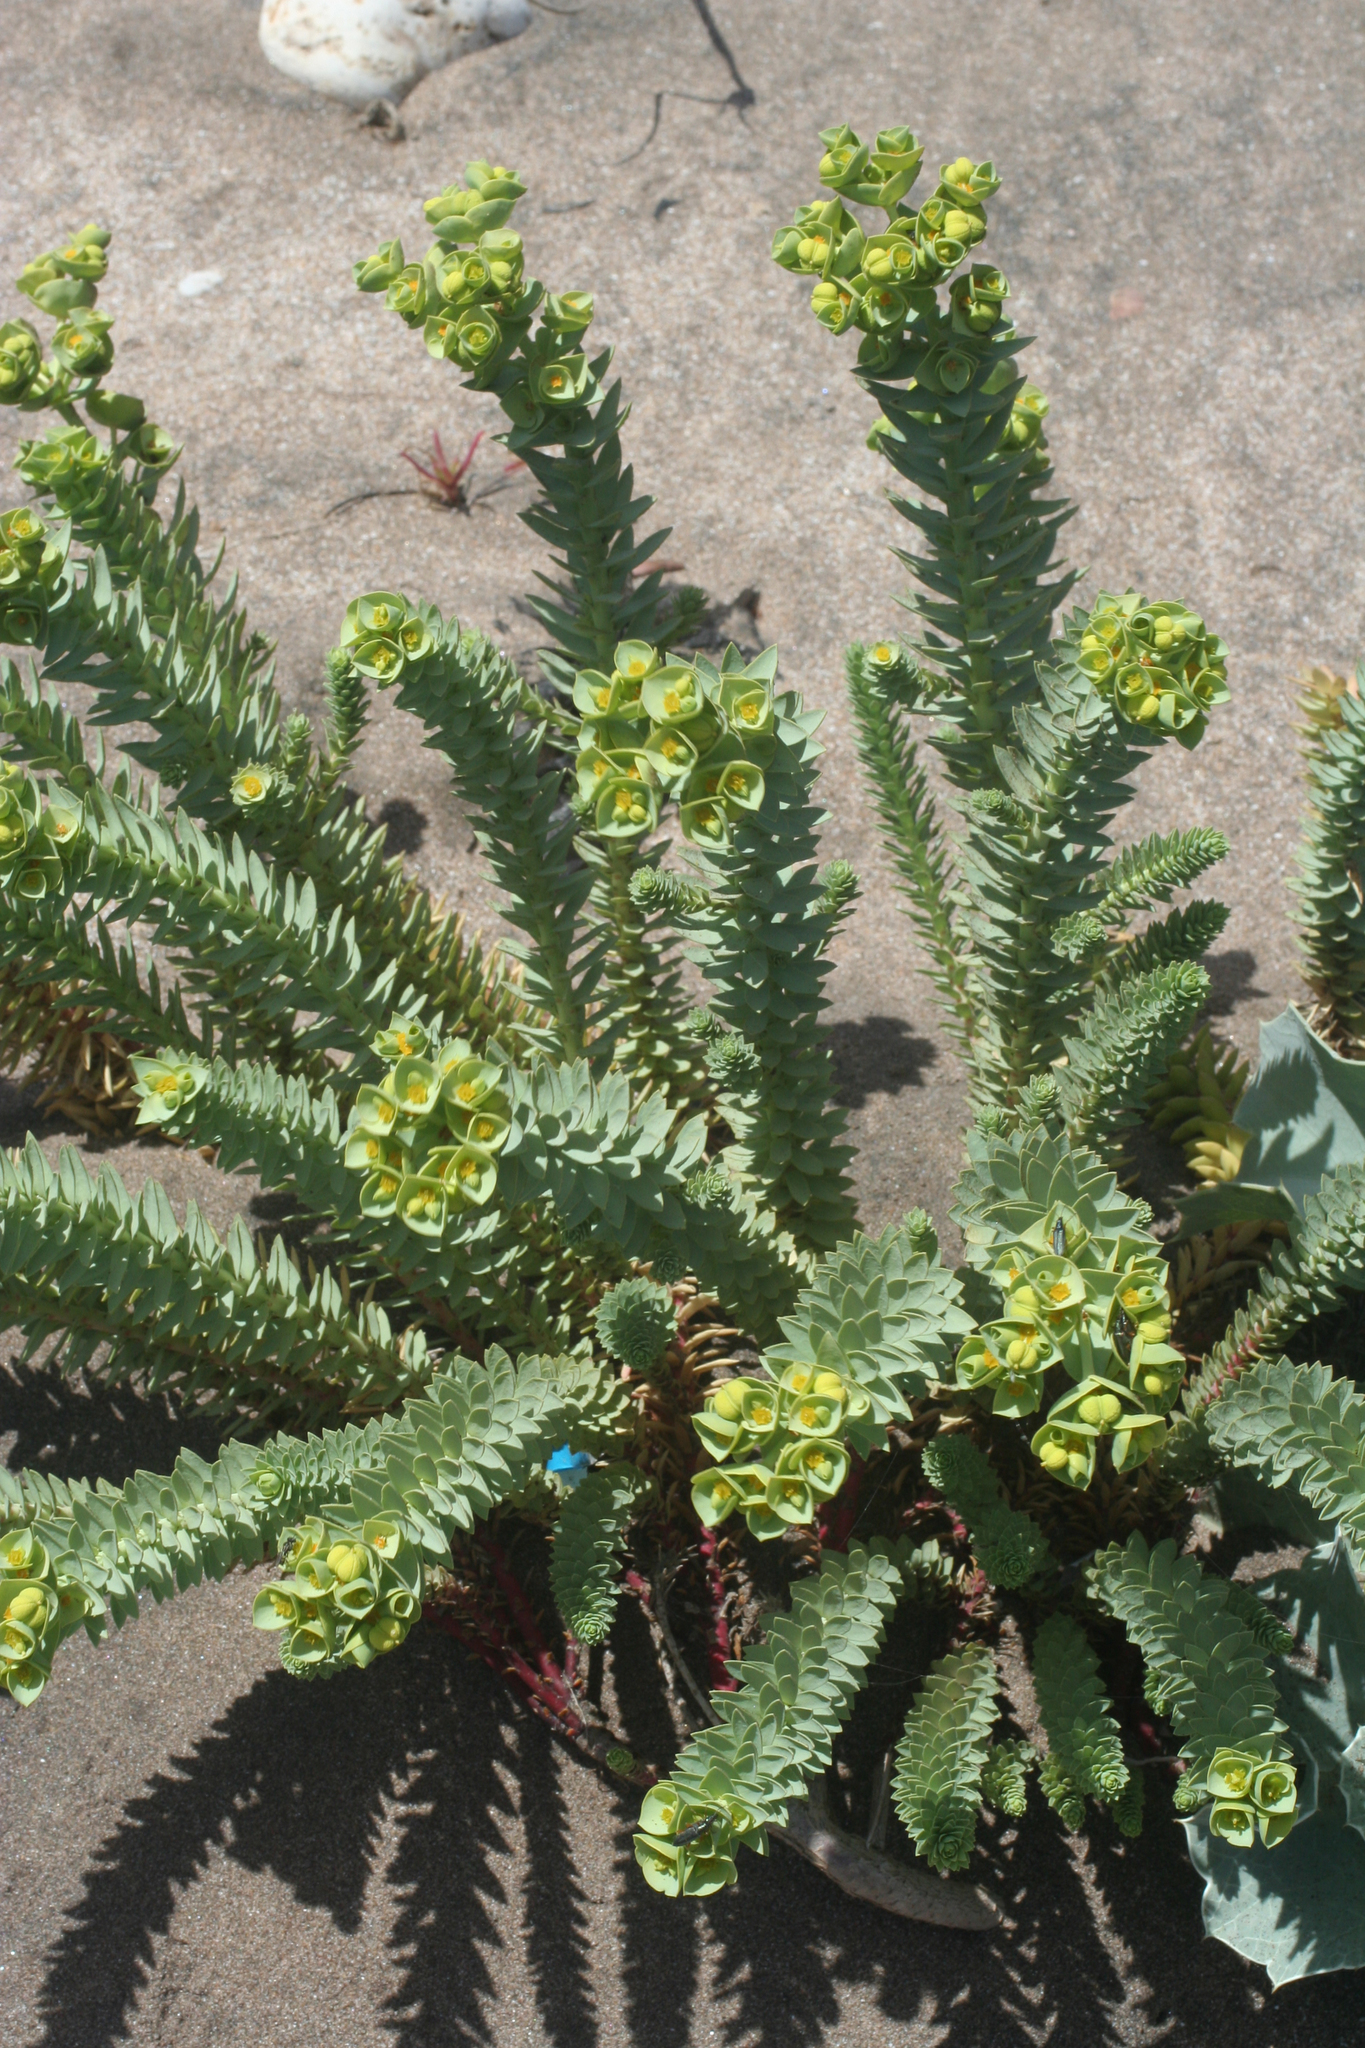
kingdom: Plantae
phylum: Tracheophyta
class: Magnoliopsida
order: Malpighiales
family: Euphorbiaceae
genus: Euphorbia
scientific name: Euphorbia paralias
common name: Sea spurge
